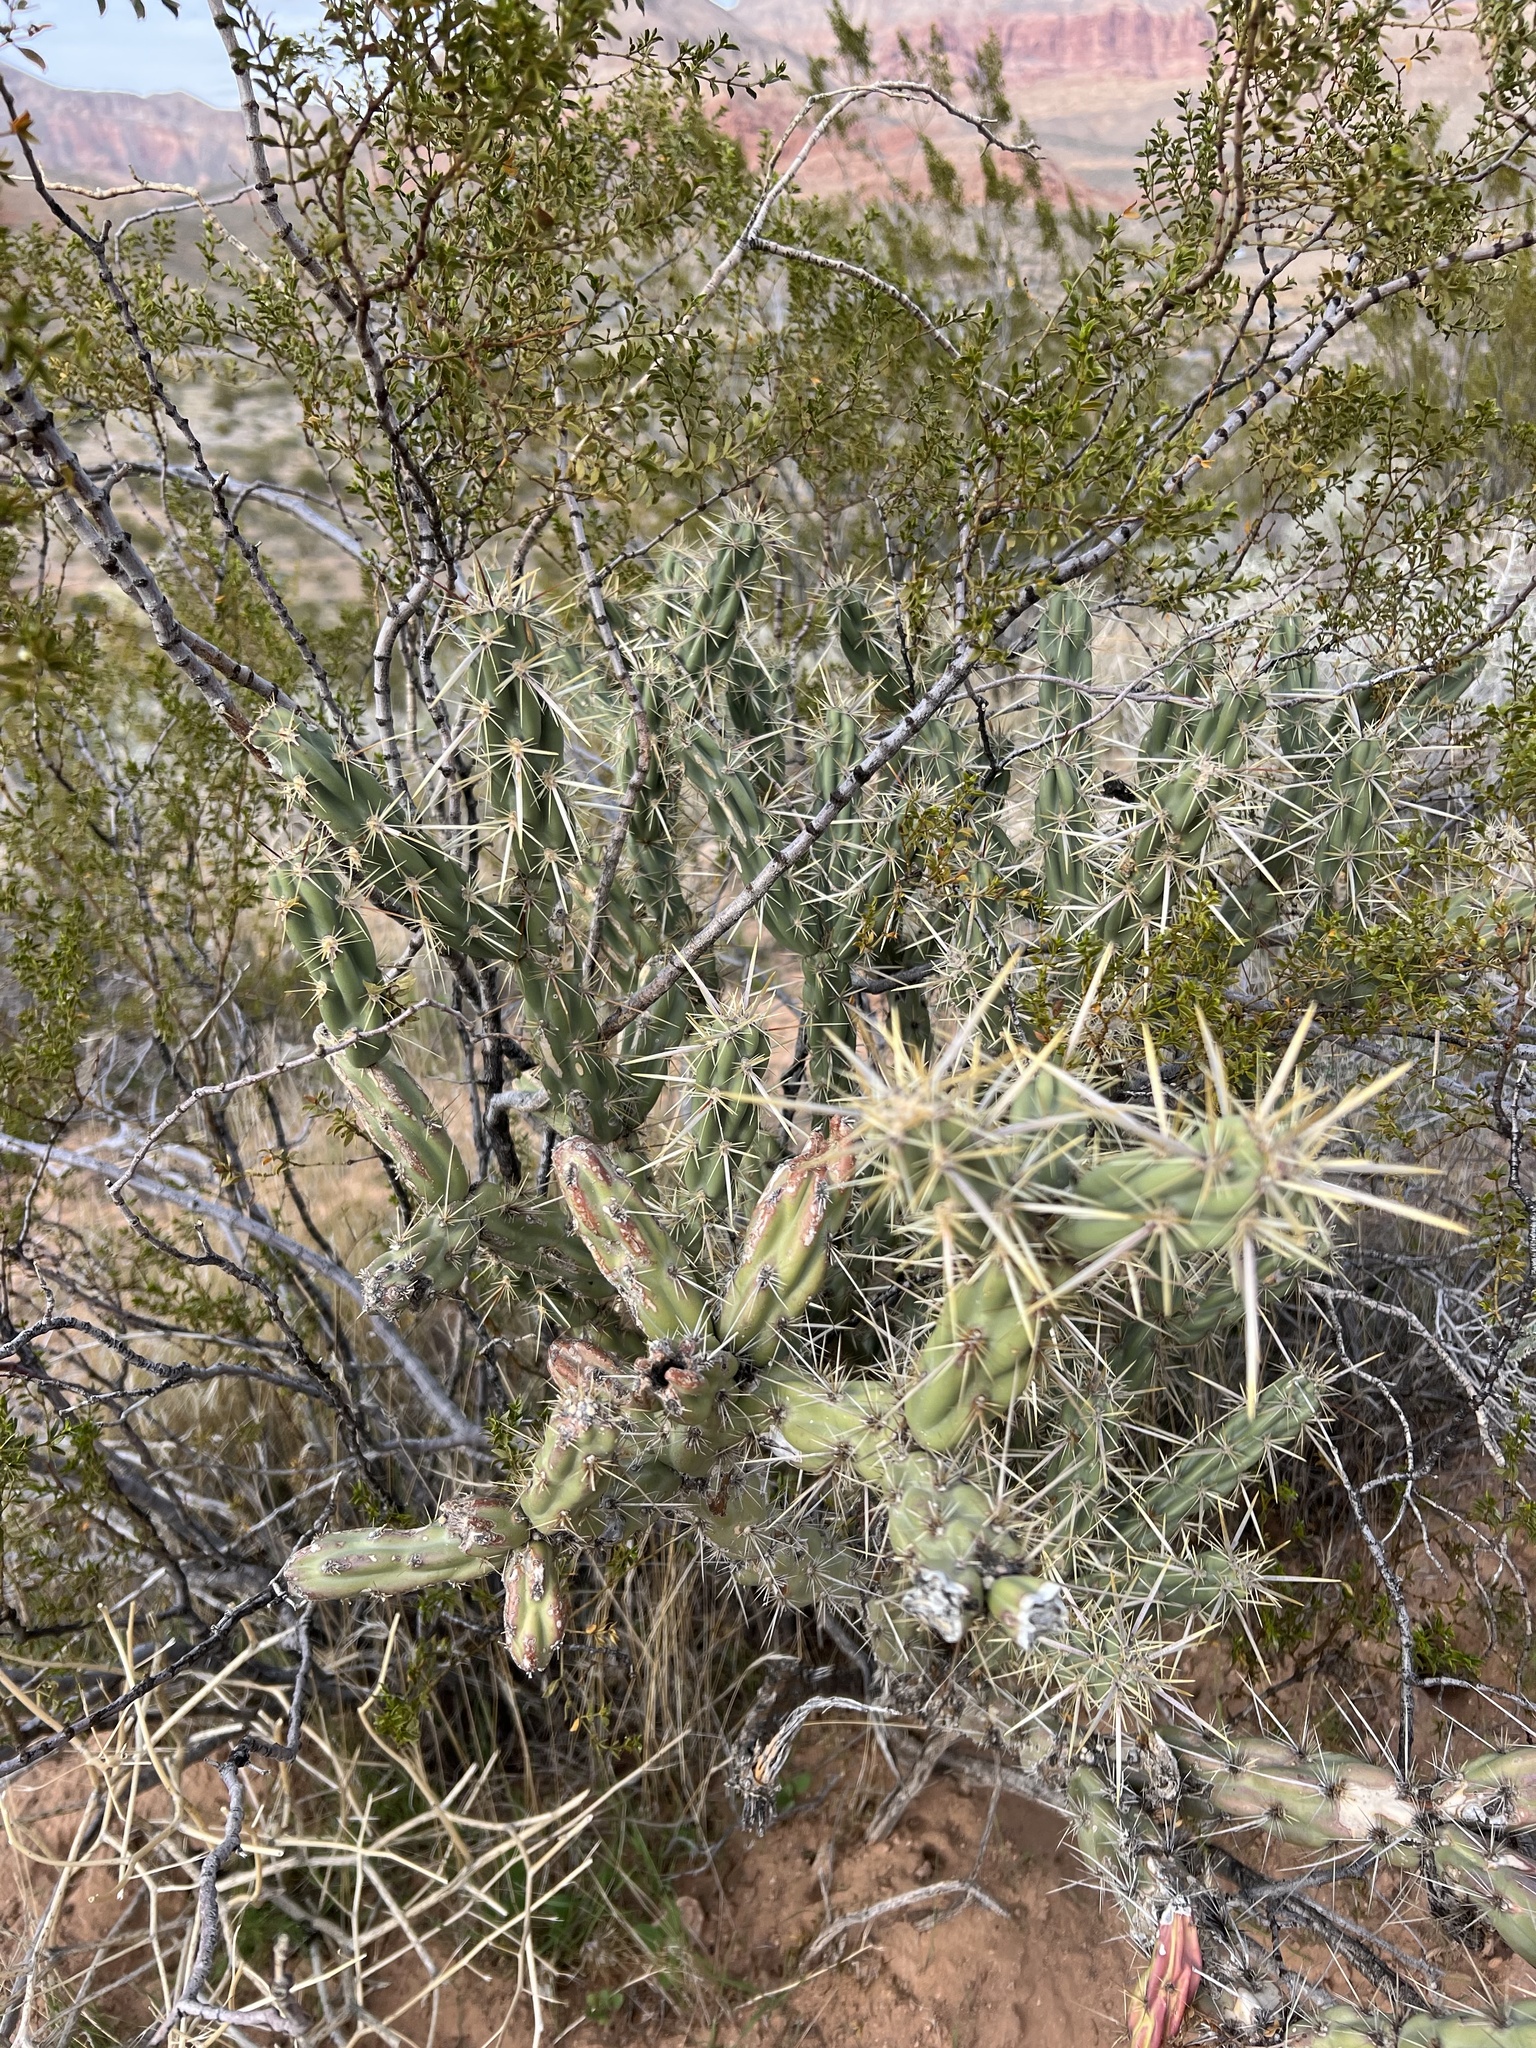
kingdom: Plantae
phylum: Tracheophyta
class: Magnoliopsida
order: Caryophyllales
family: Cactaceae
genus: Cylindropuntia
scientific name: Cylindropuntia acanthocarpa
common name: Buckhorn cholla
